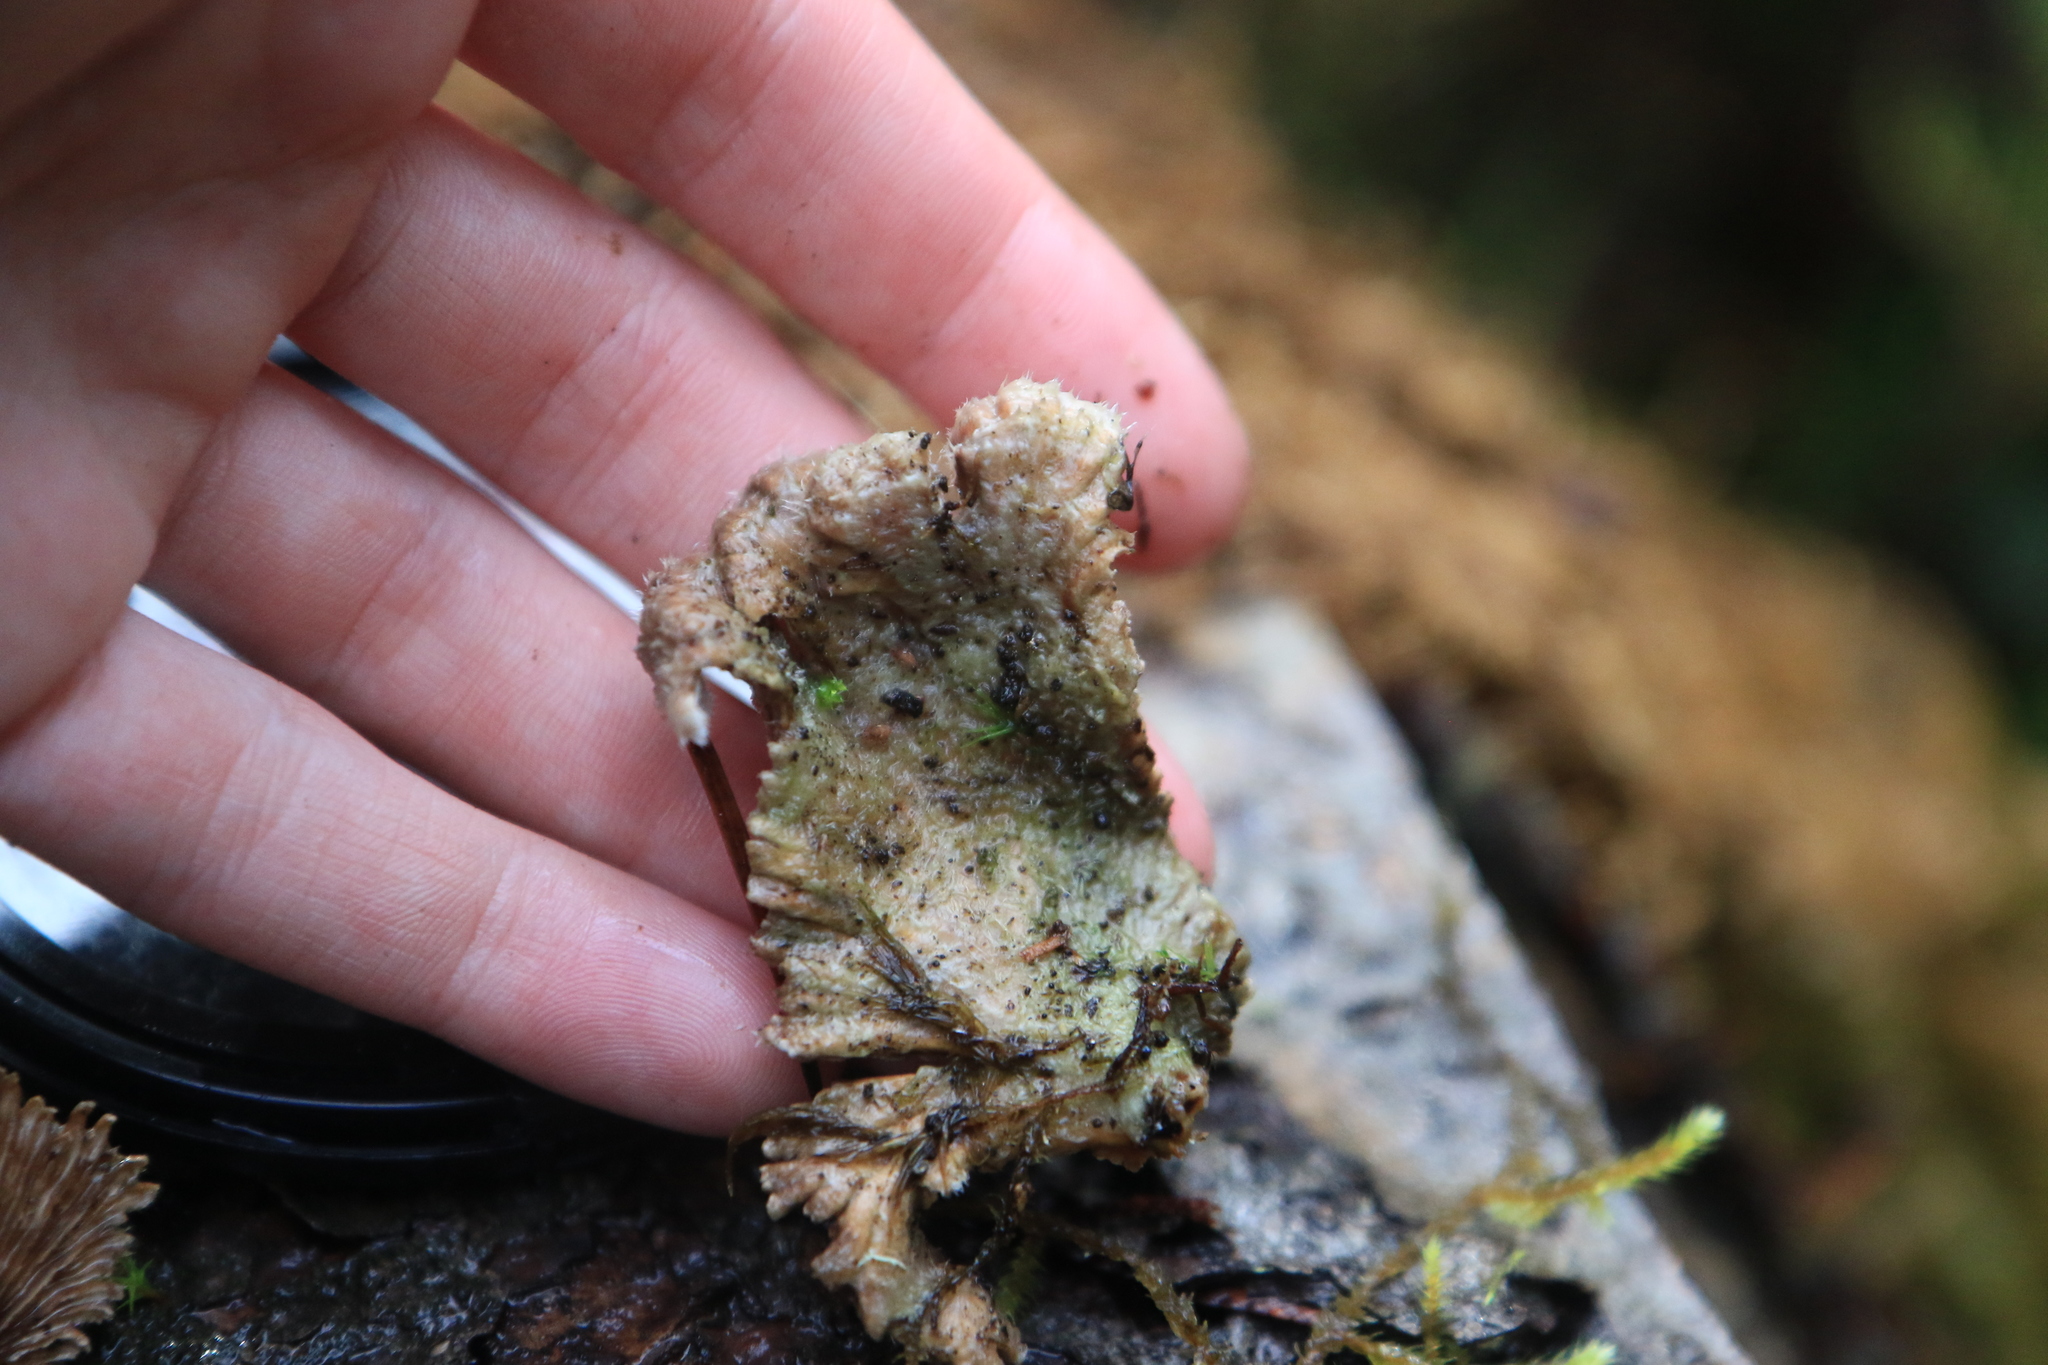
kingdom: Fungi
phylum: Basidiomycota
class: Agaricomycetes
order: Agaricales
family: Schizophyllaceae
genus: Schizophyllum
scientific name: Schizophyllum commune
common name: Common porecrust
